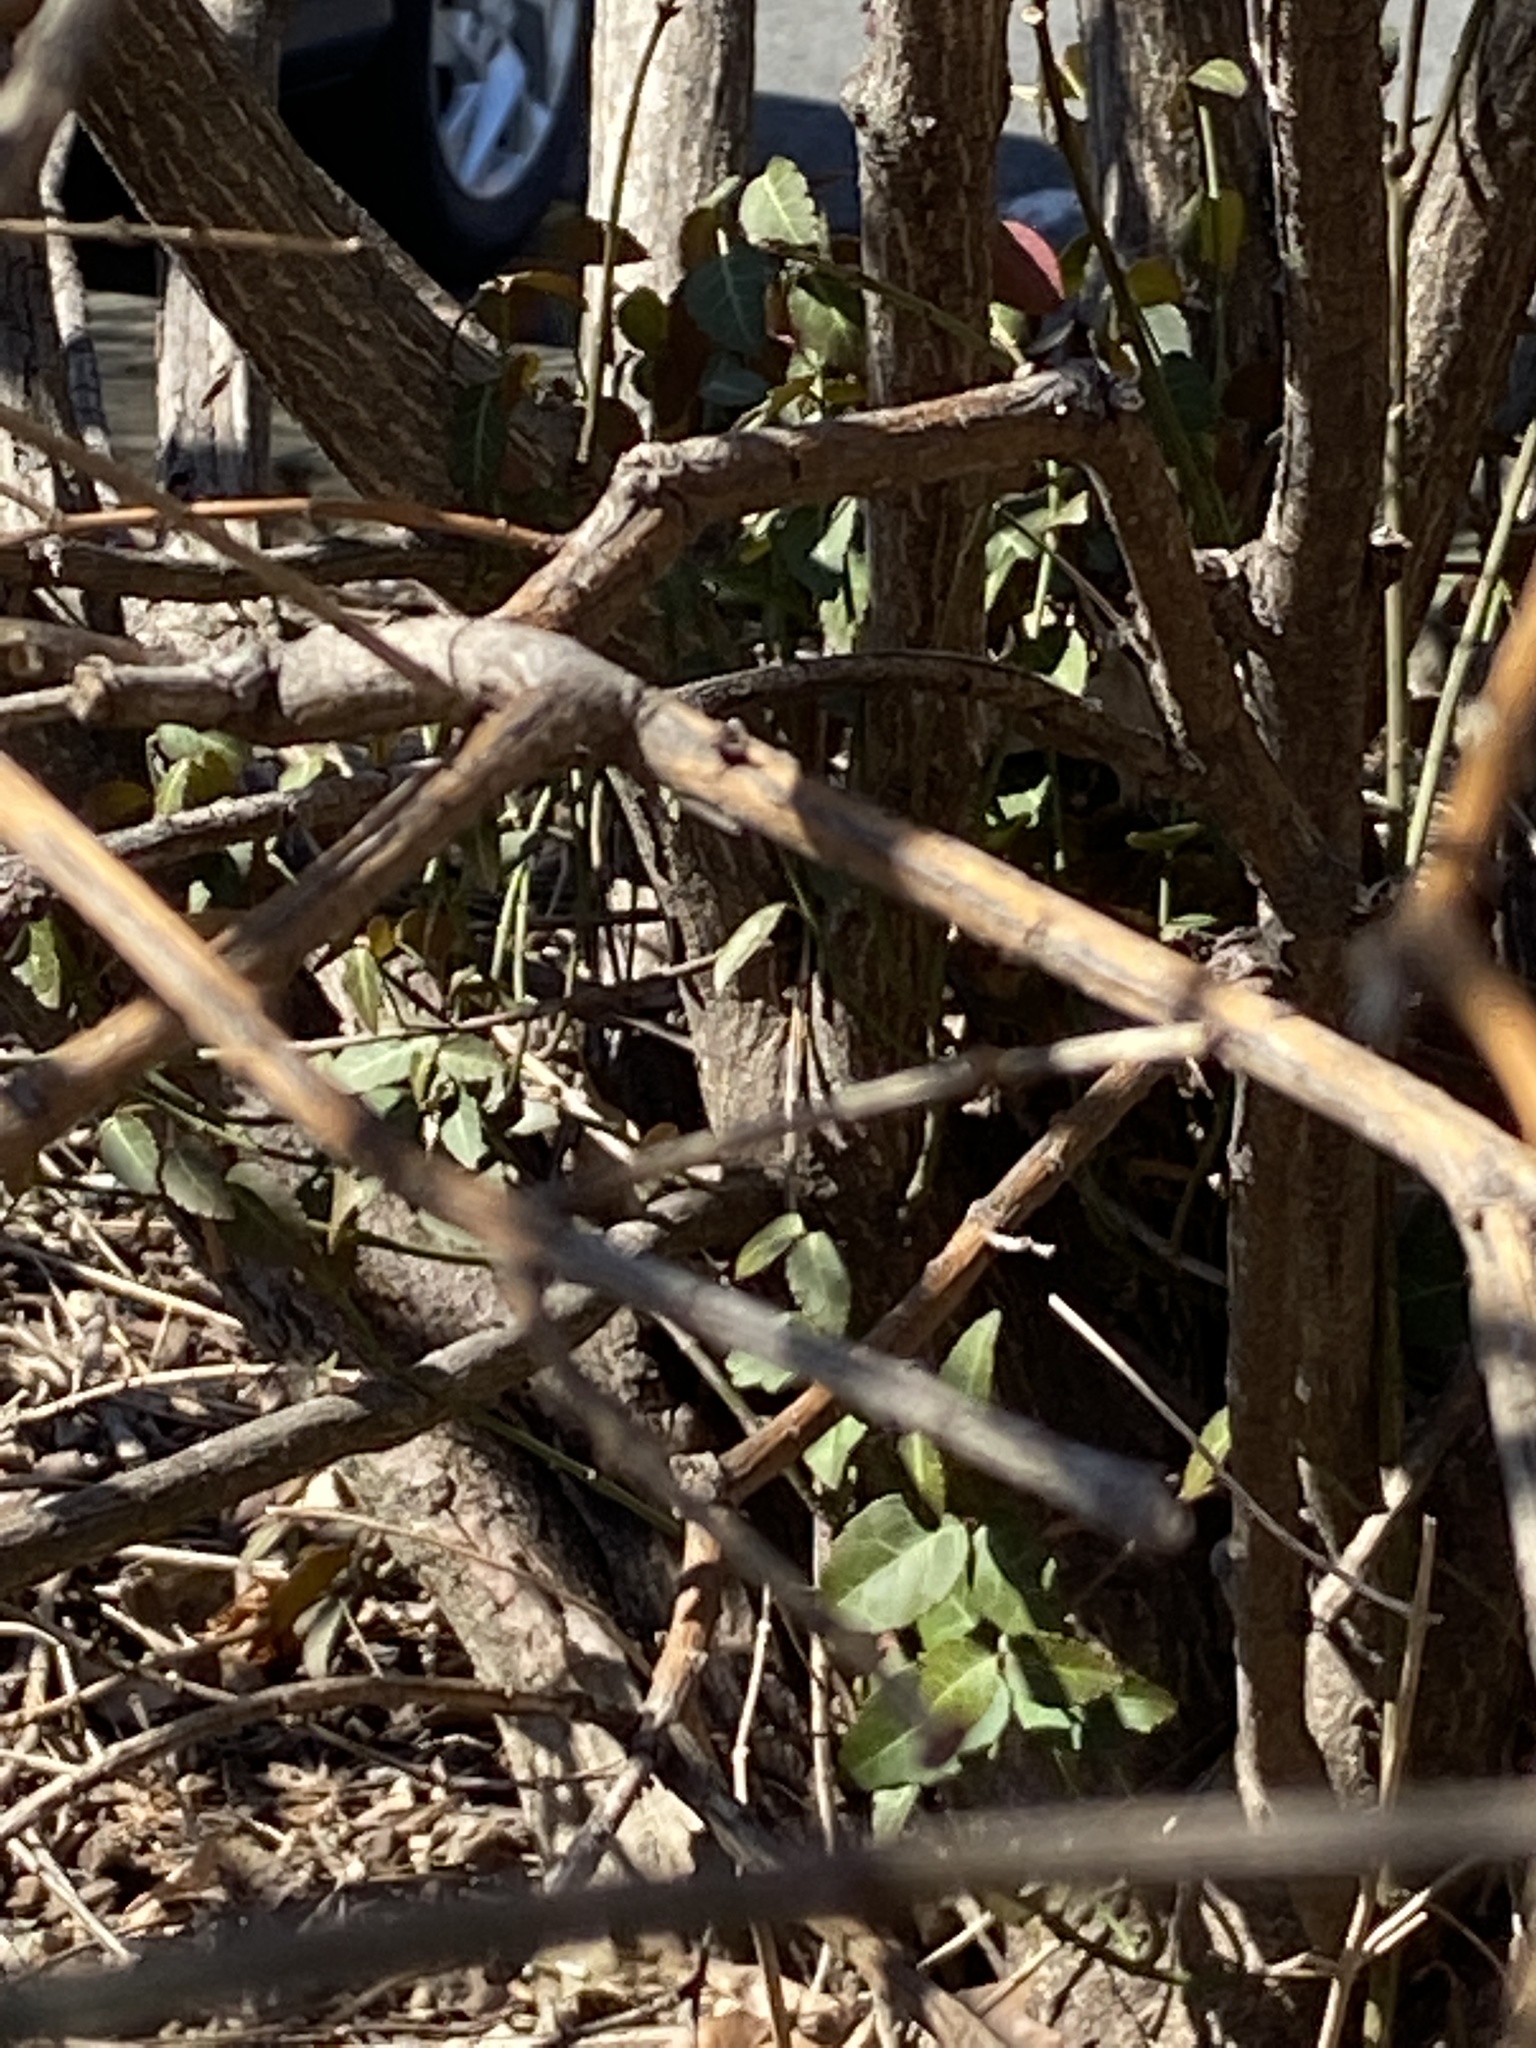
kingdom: Plantae
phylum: Tracheophyta
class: Magnoliopsida
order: Celastrales
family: Celastraceae
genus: Euonymus
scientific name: Euonymus fortunei
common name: Climbing euonymus
